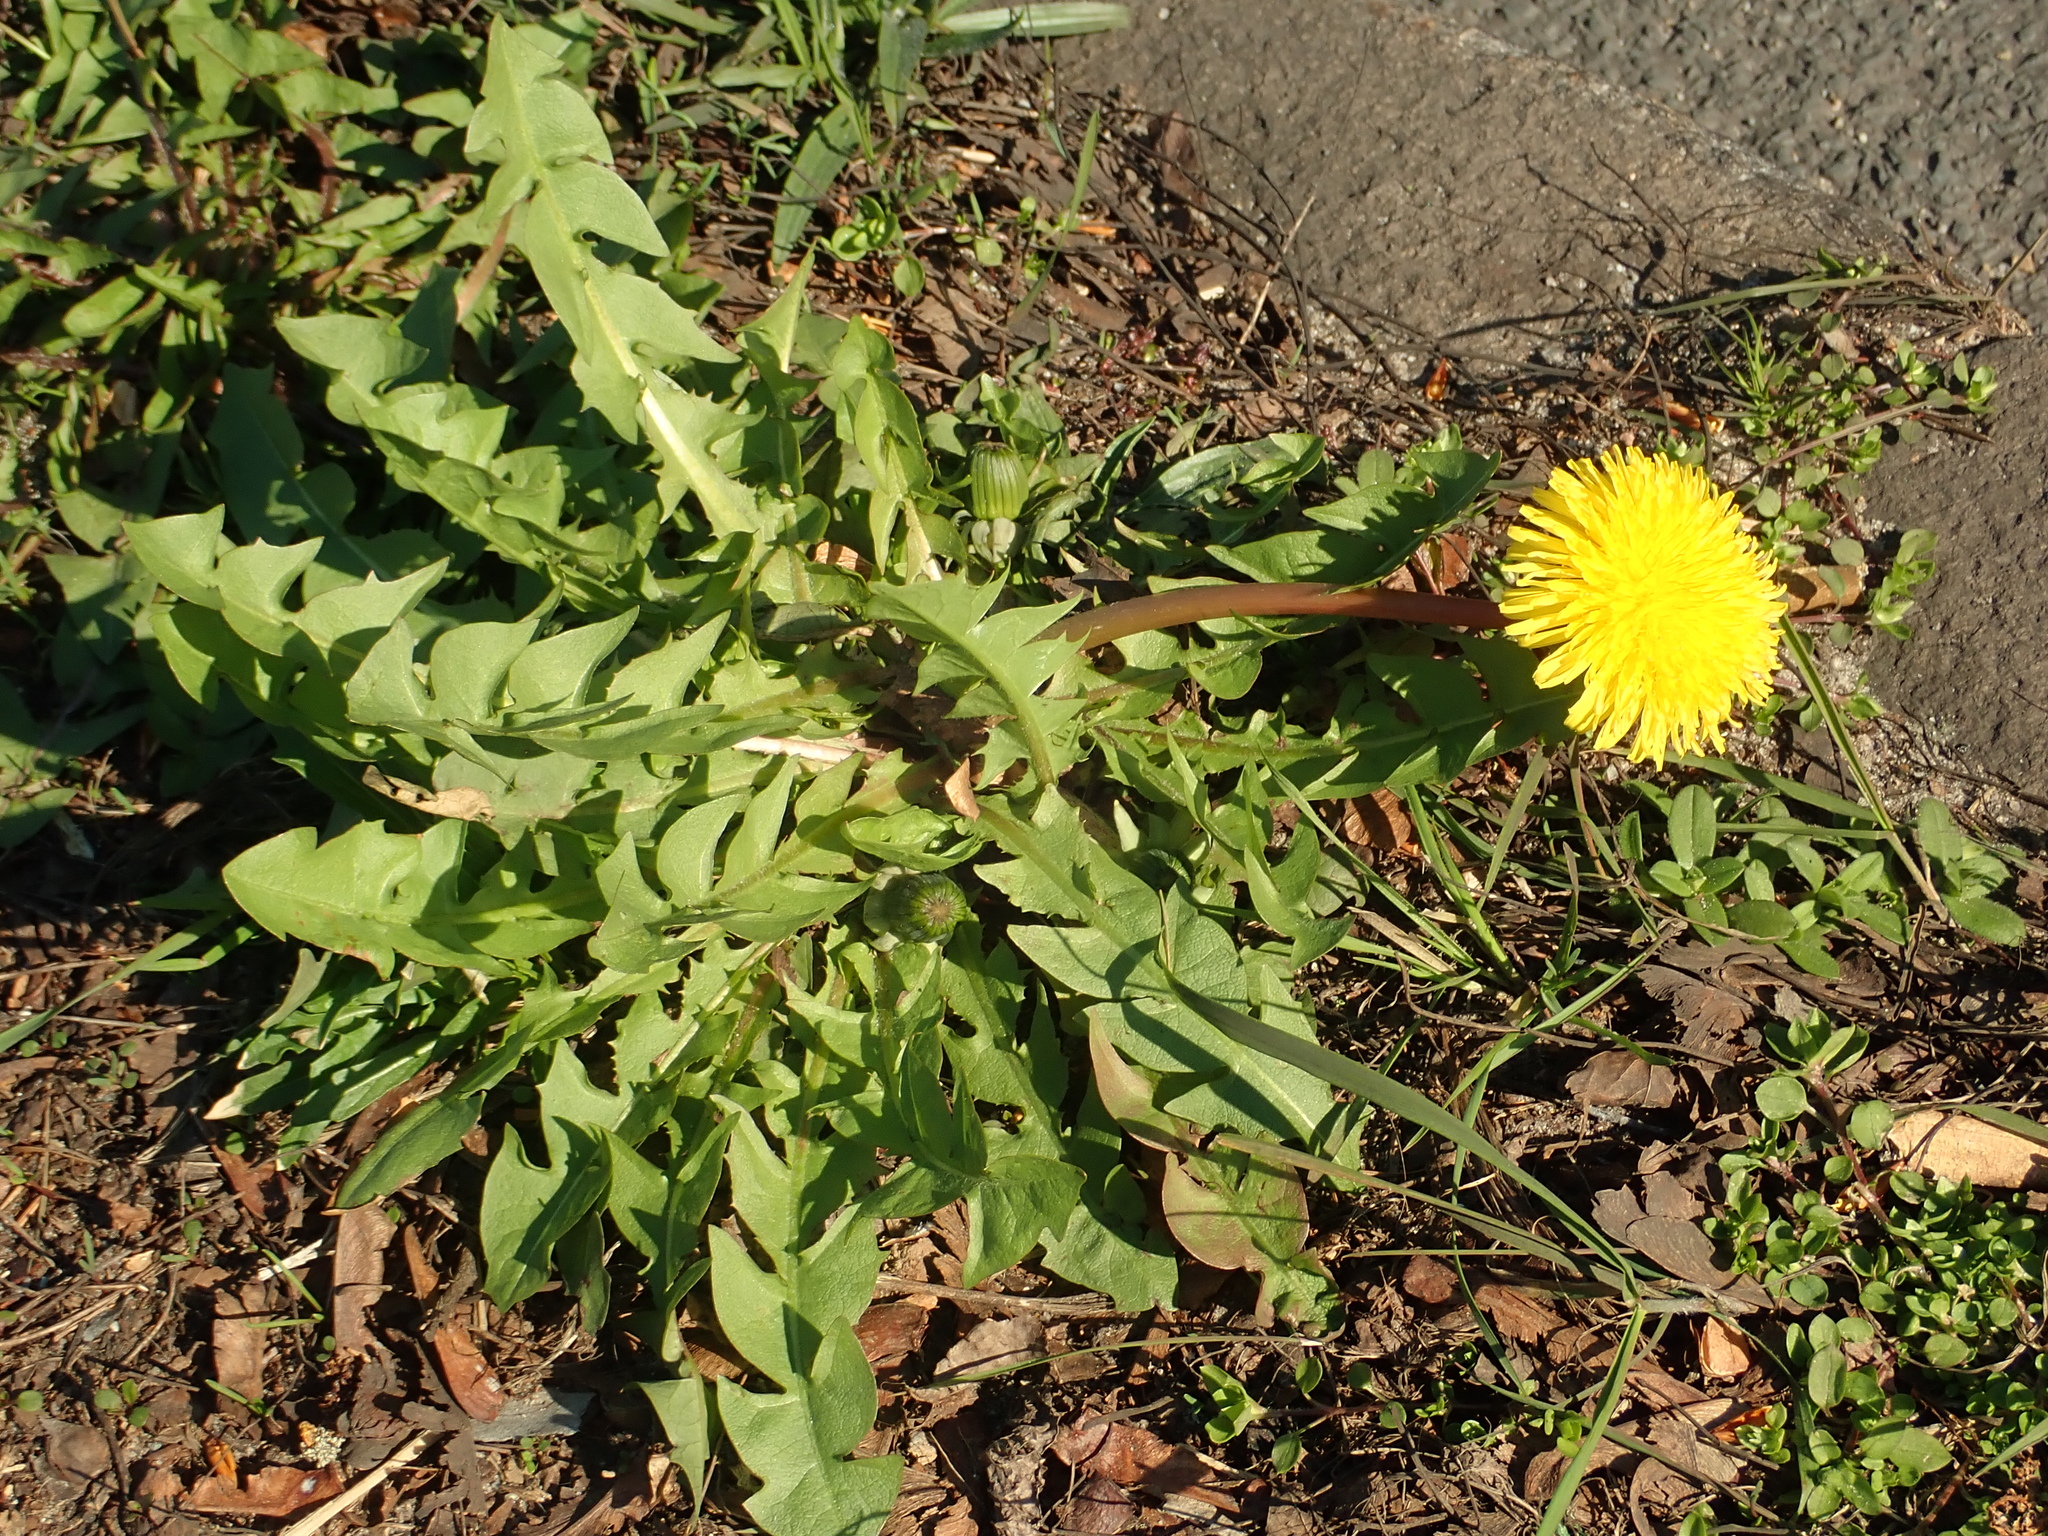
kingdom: Plantae
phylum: Tracheophyta
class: Magnoliopsida
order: Asterales
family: Asteraceae
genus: Taraxacum
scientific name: Taraxacum officinale
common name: Common dandelion
